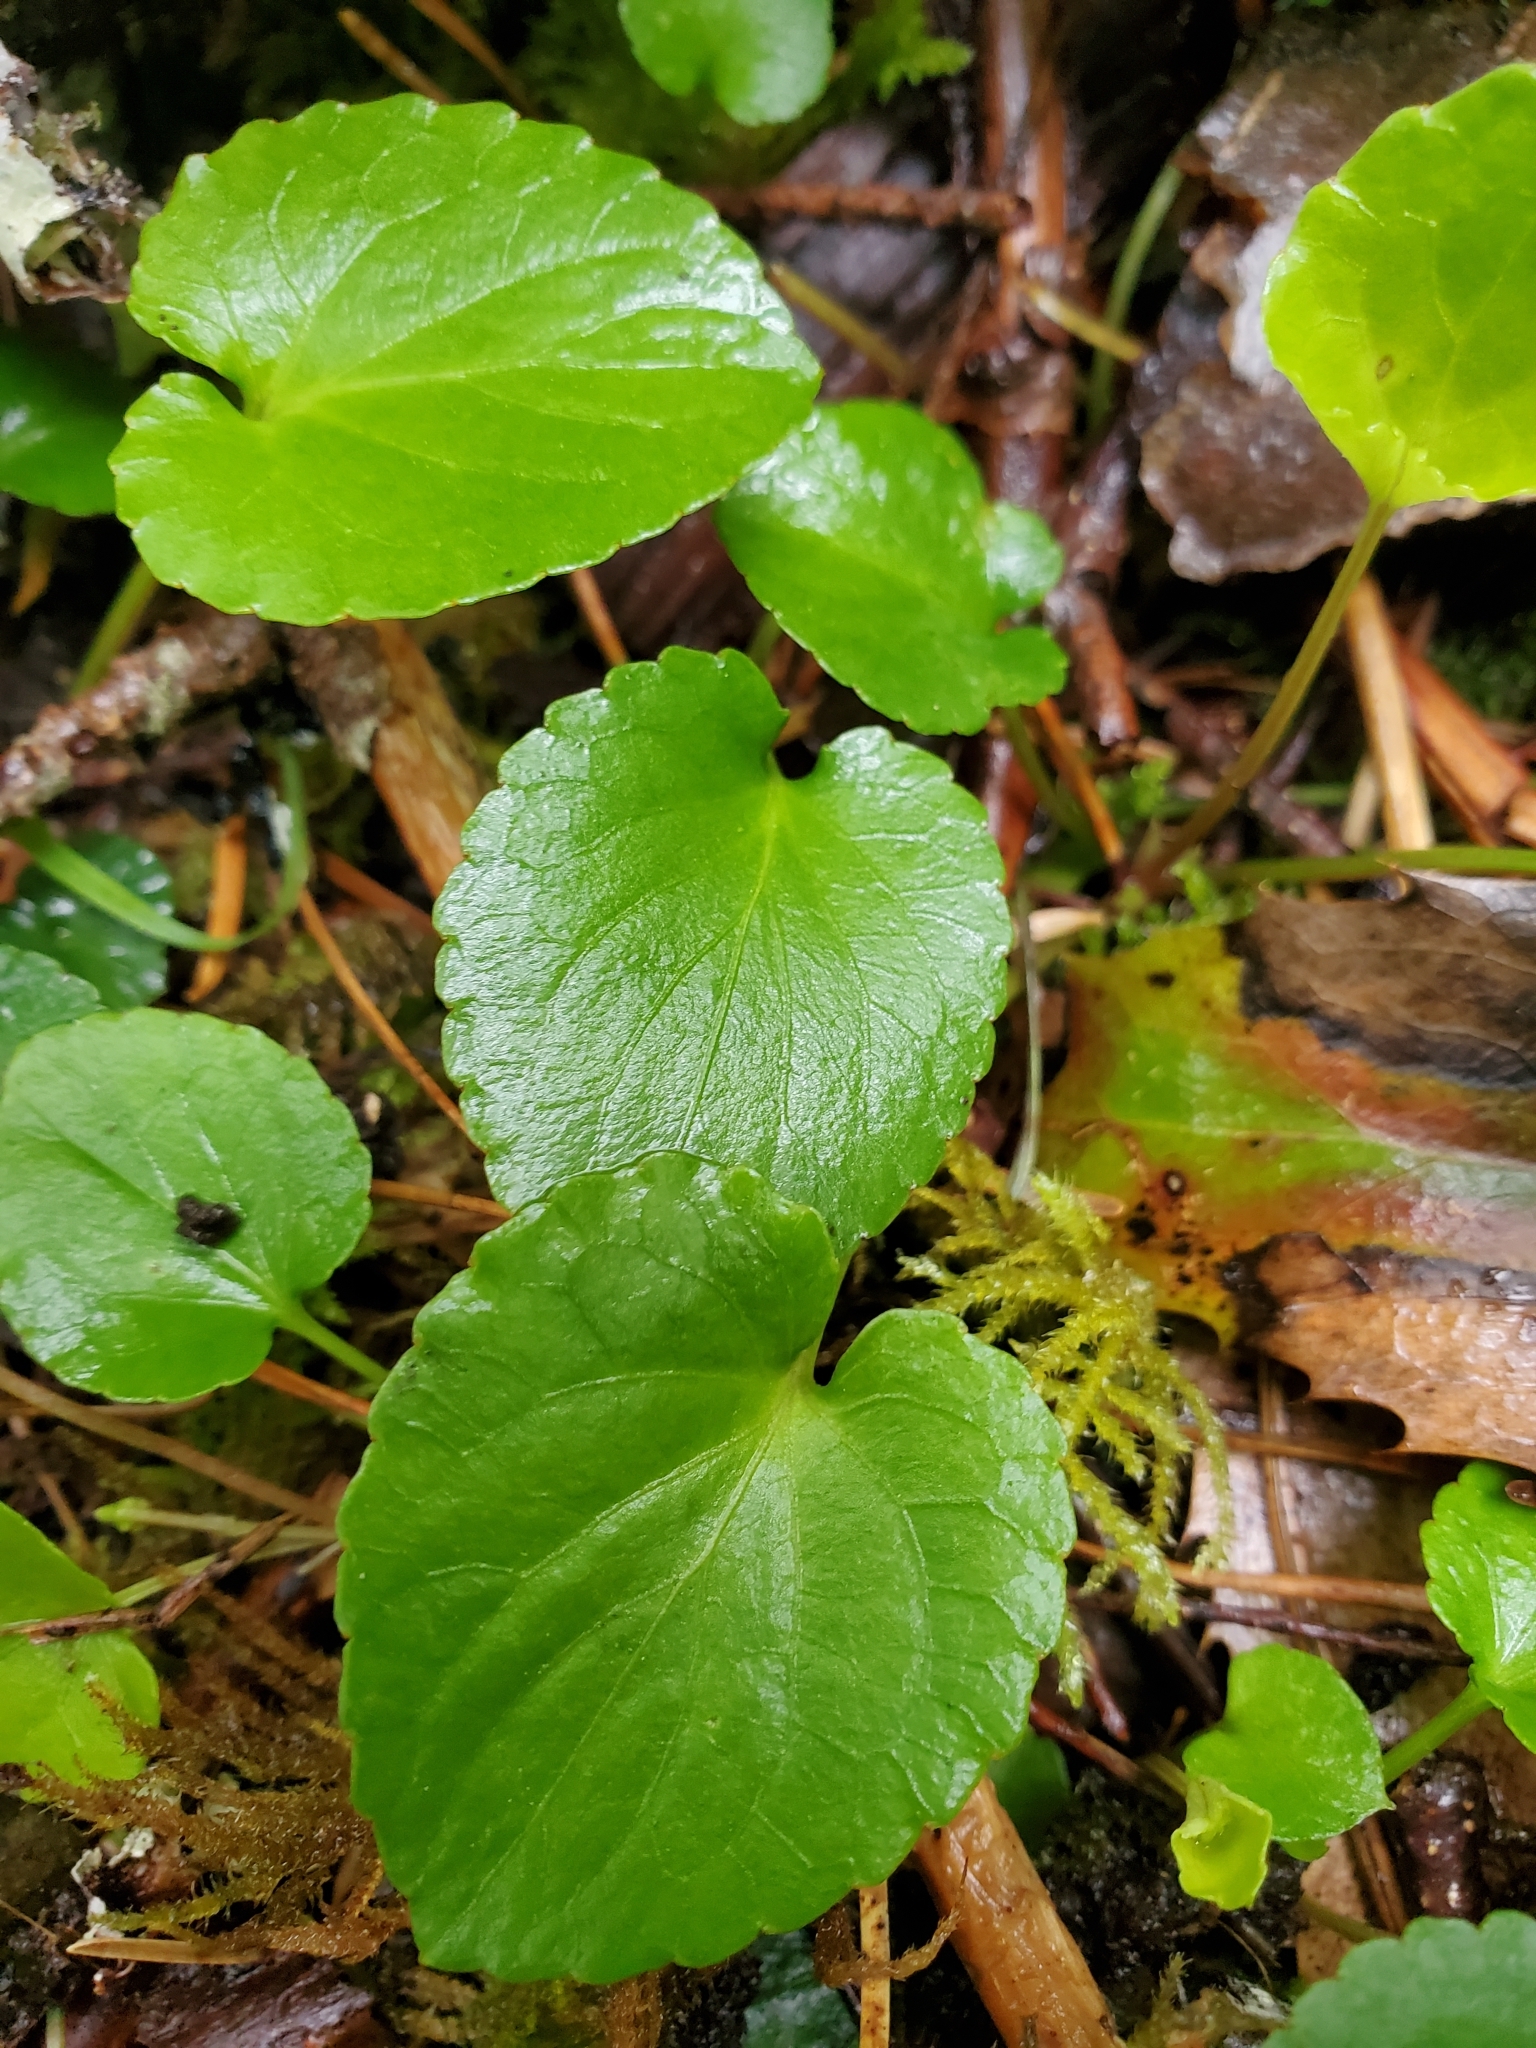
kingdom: Plantae
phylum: Tracheophyta
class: Magnoliopsida
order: Malpighiales
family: Violaceae
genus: Viola
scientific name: Viola sempervirens
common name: Evergreen violet
